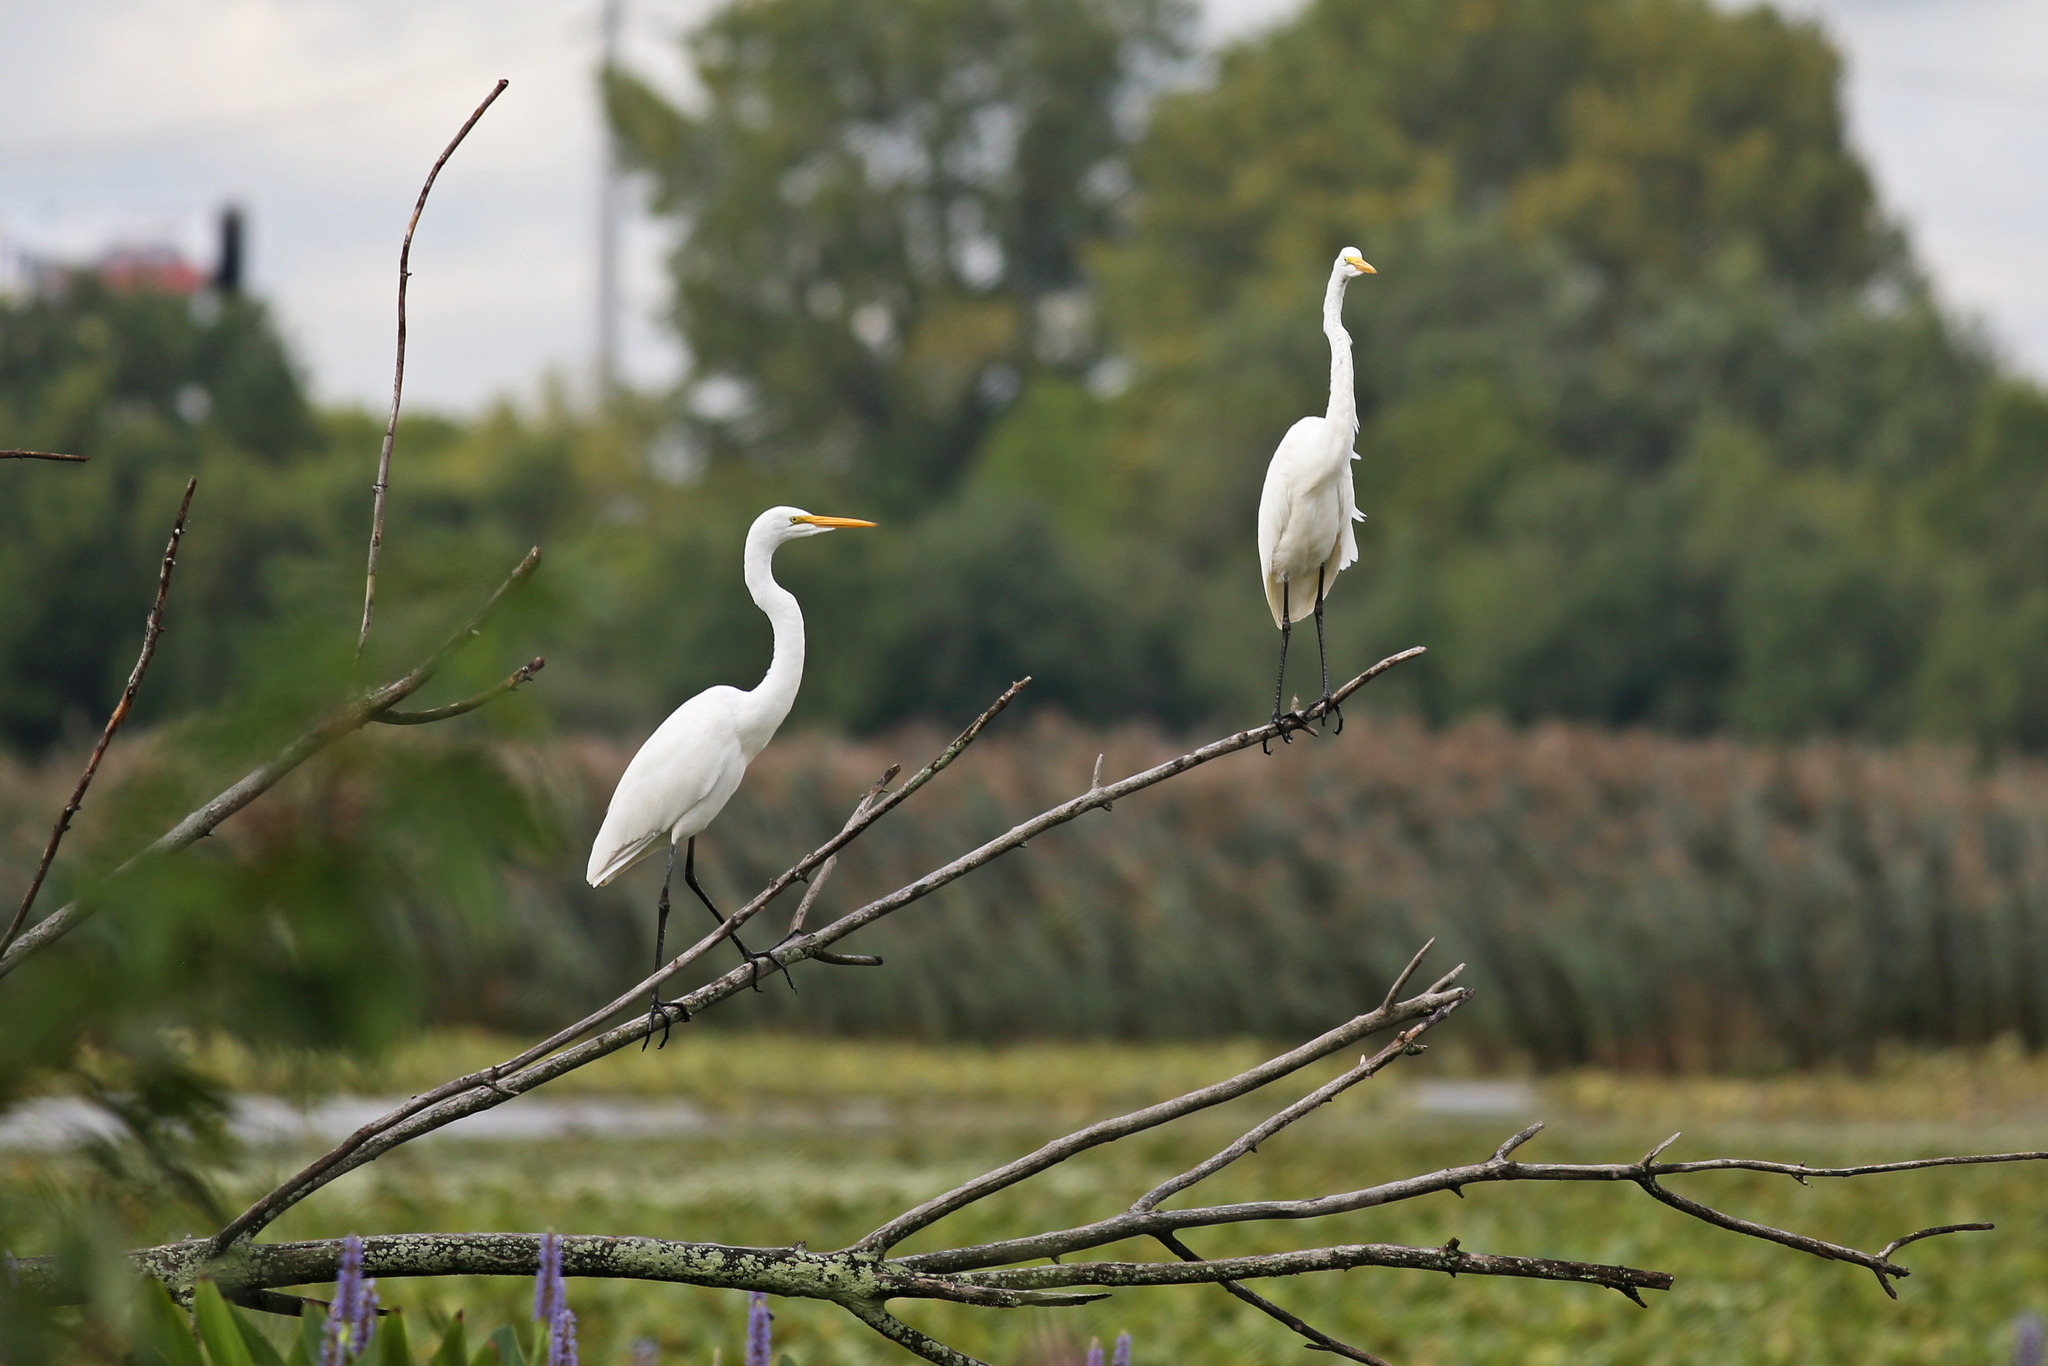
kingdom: Animalia
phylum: Chordata
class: Aves
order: Pelecaniformes
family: Ardeidae
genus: Ardea
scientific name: Ardea alba
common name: Great egret
